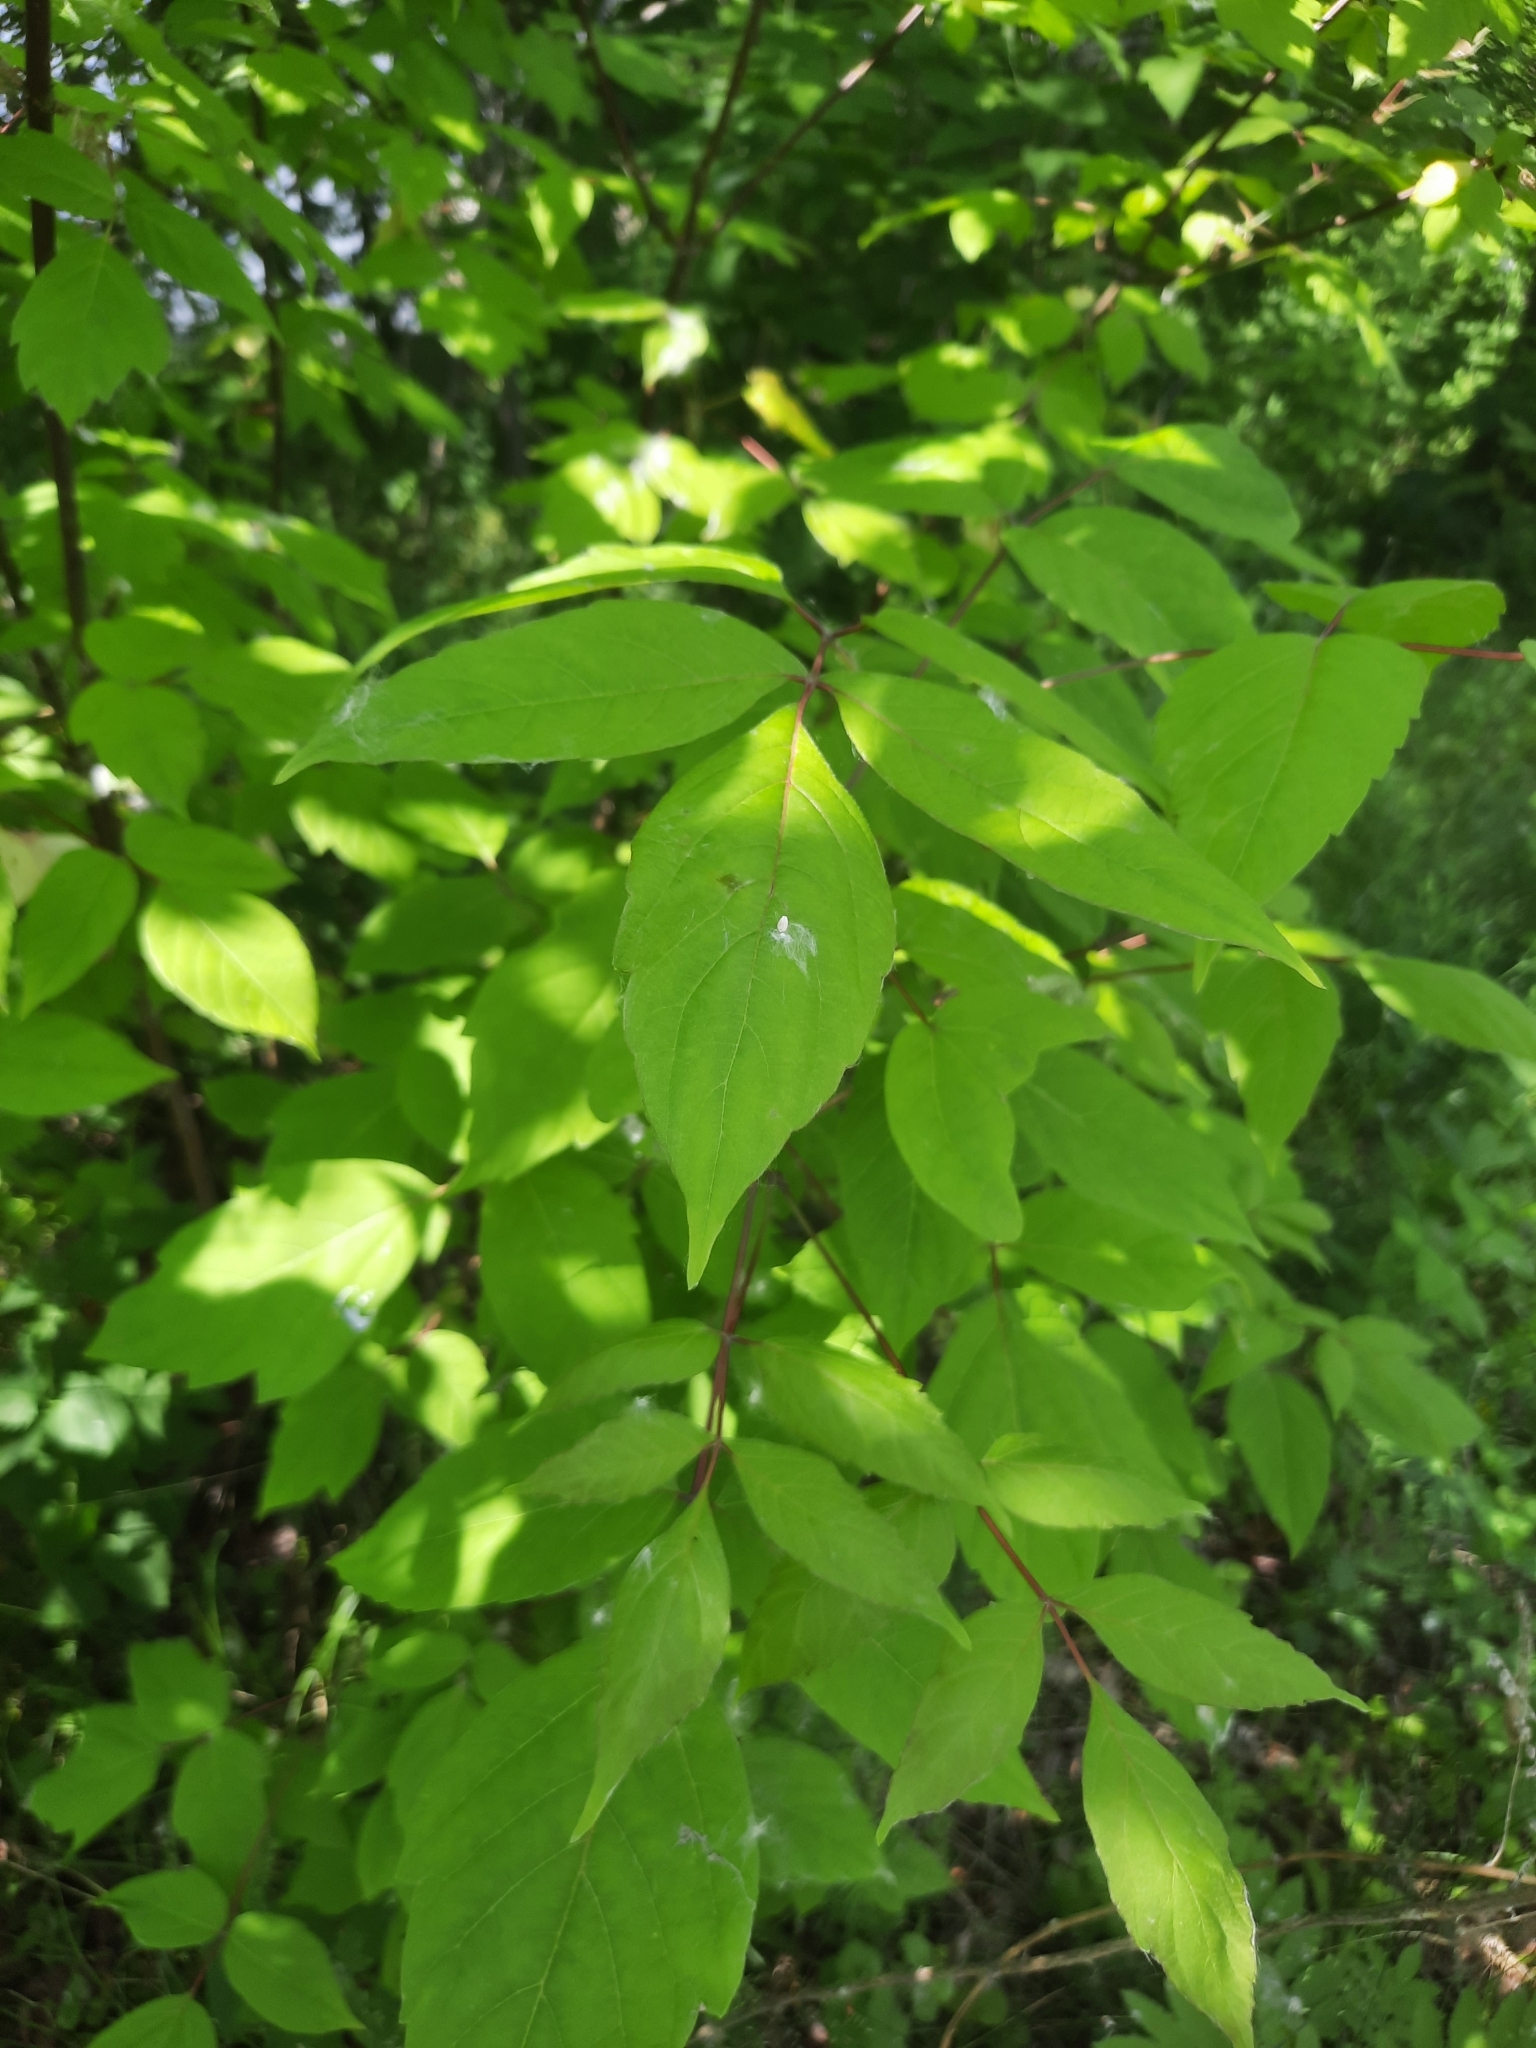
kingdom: Plantae
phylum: Tracheophyta
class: Magnoliopsida
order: Sapindales
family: Sapindaceae
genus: Acer
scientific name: Acer negundo
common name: Ashleaf maple
